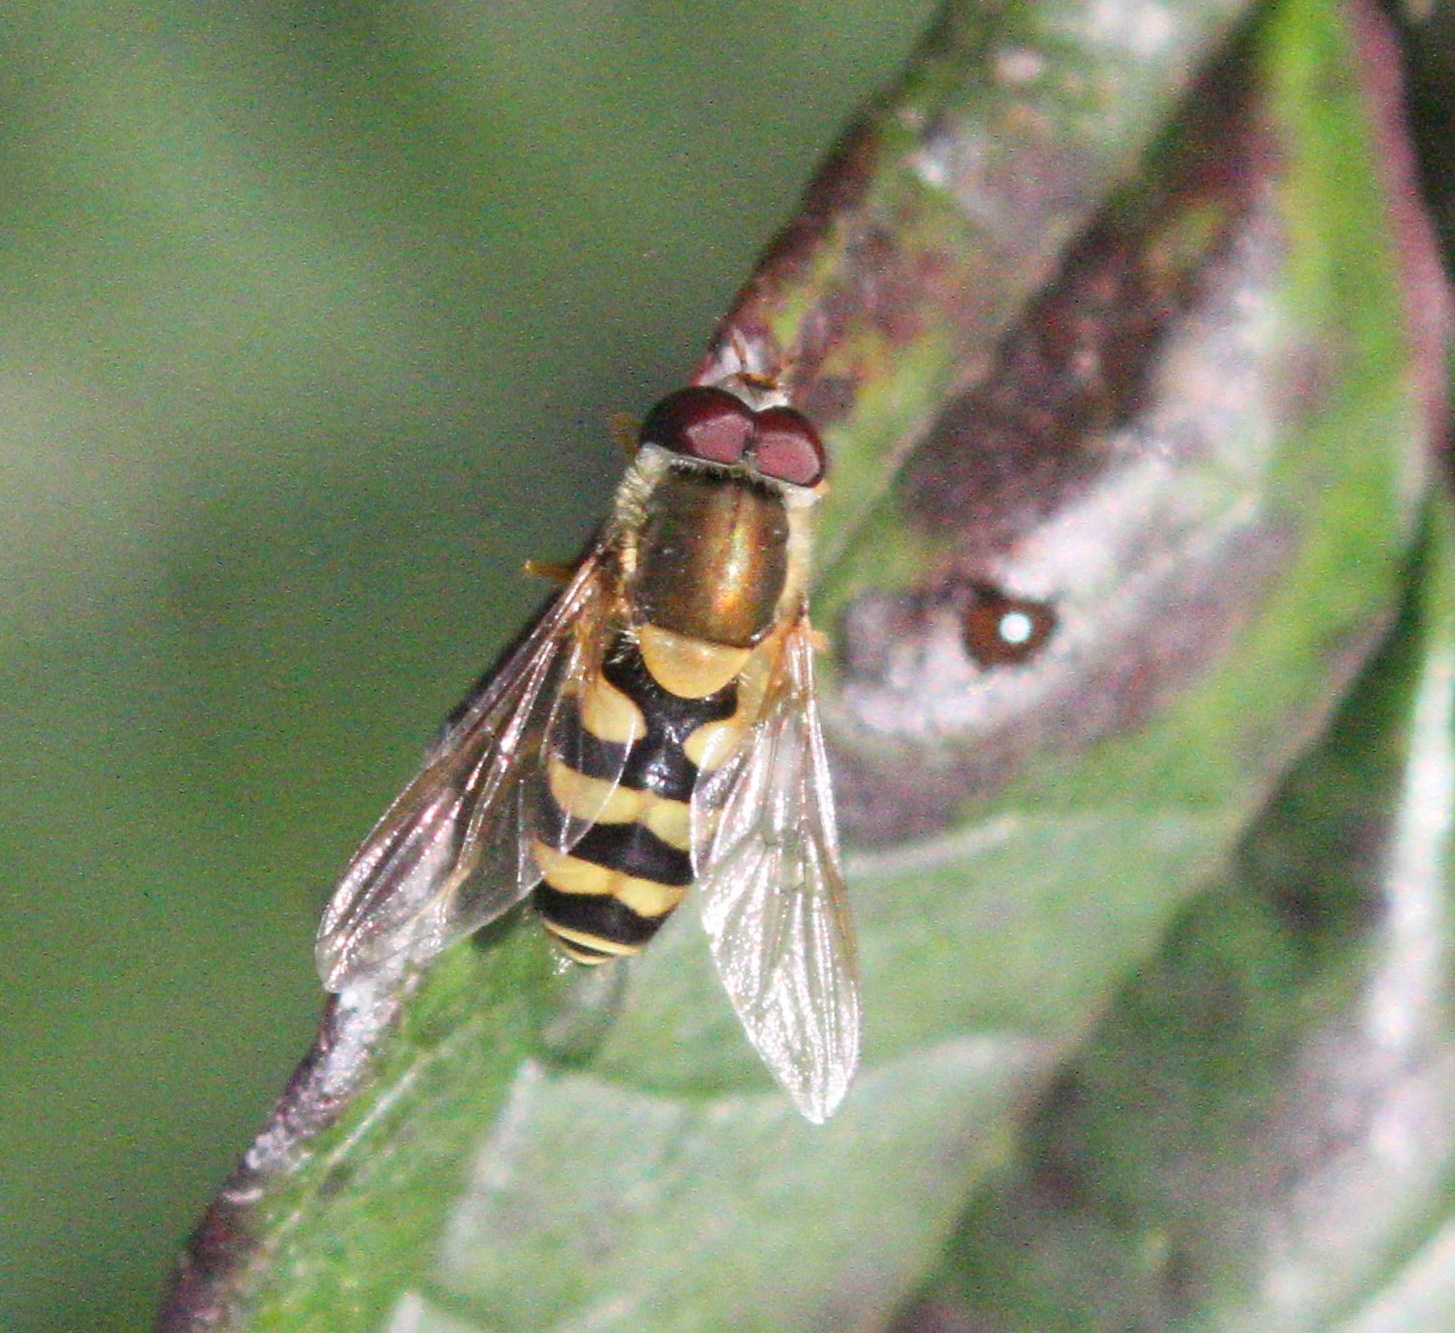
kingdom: Animalia
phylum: Arthropoda
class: Insecta
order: Diptera
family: Syrphidae
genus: Syrphus
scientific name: Syrphus
